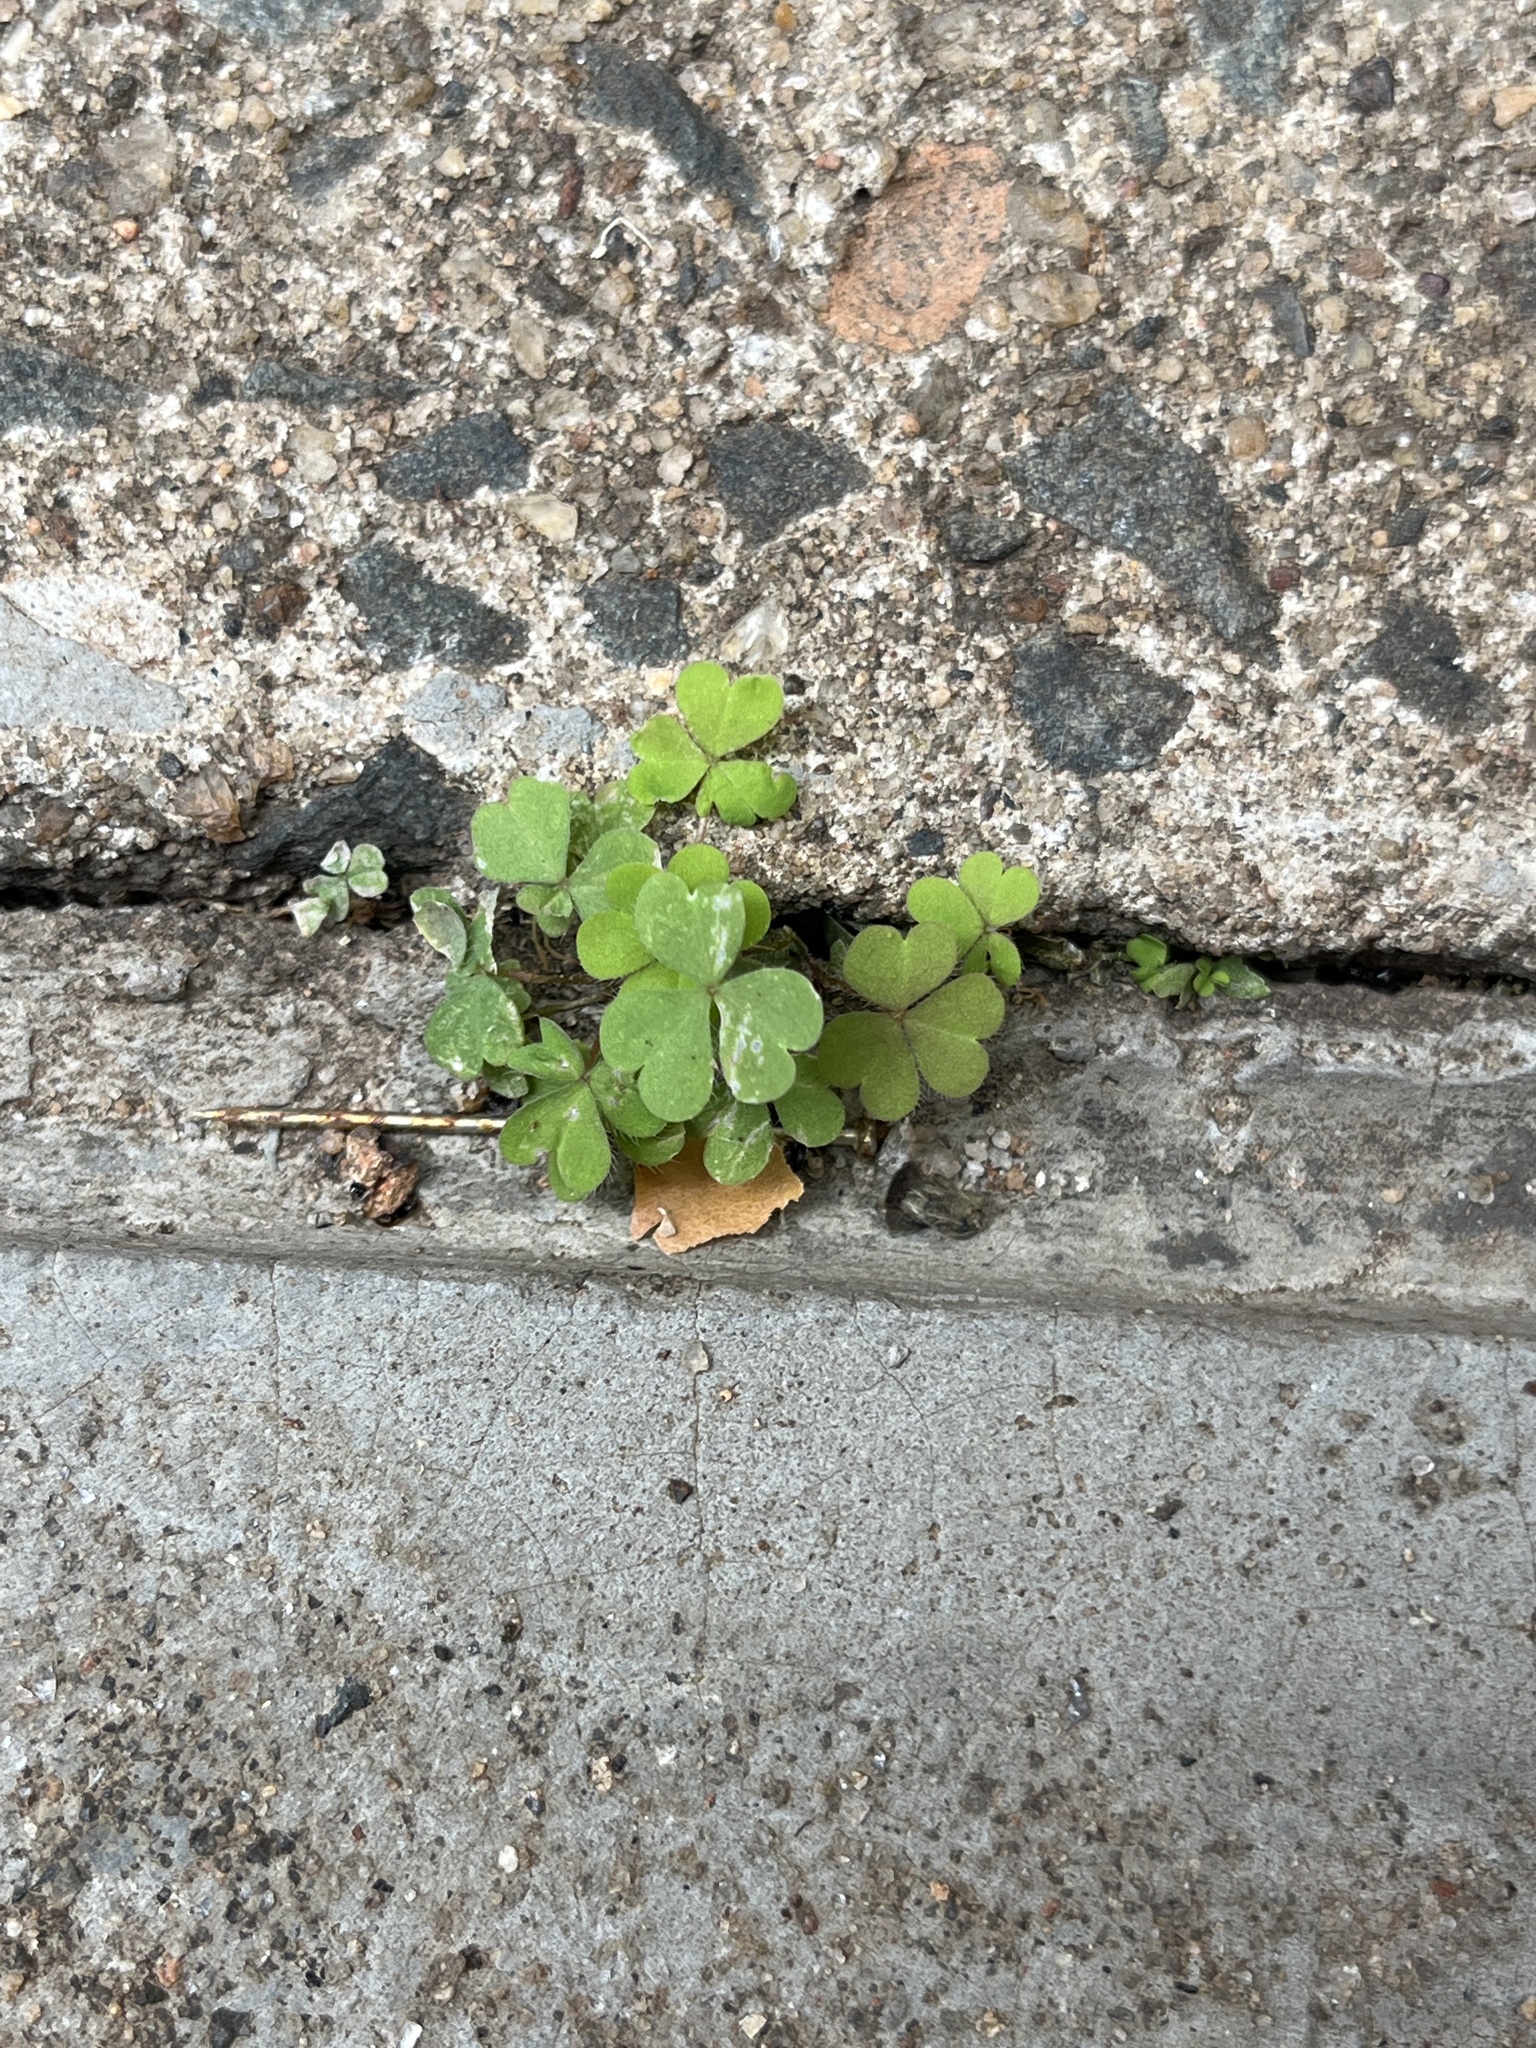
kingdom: Plantae
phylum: Tracheophyta
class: Magnoliopsida
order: Oxalidales
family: Oxalidaceae
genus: Oxalis
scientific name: Oxalis corniculata
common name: Procumbent yellow-sorrel
